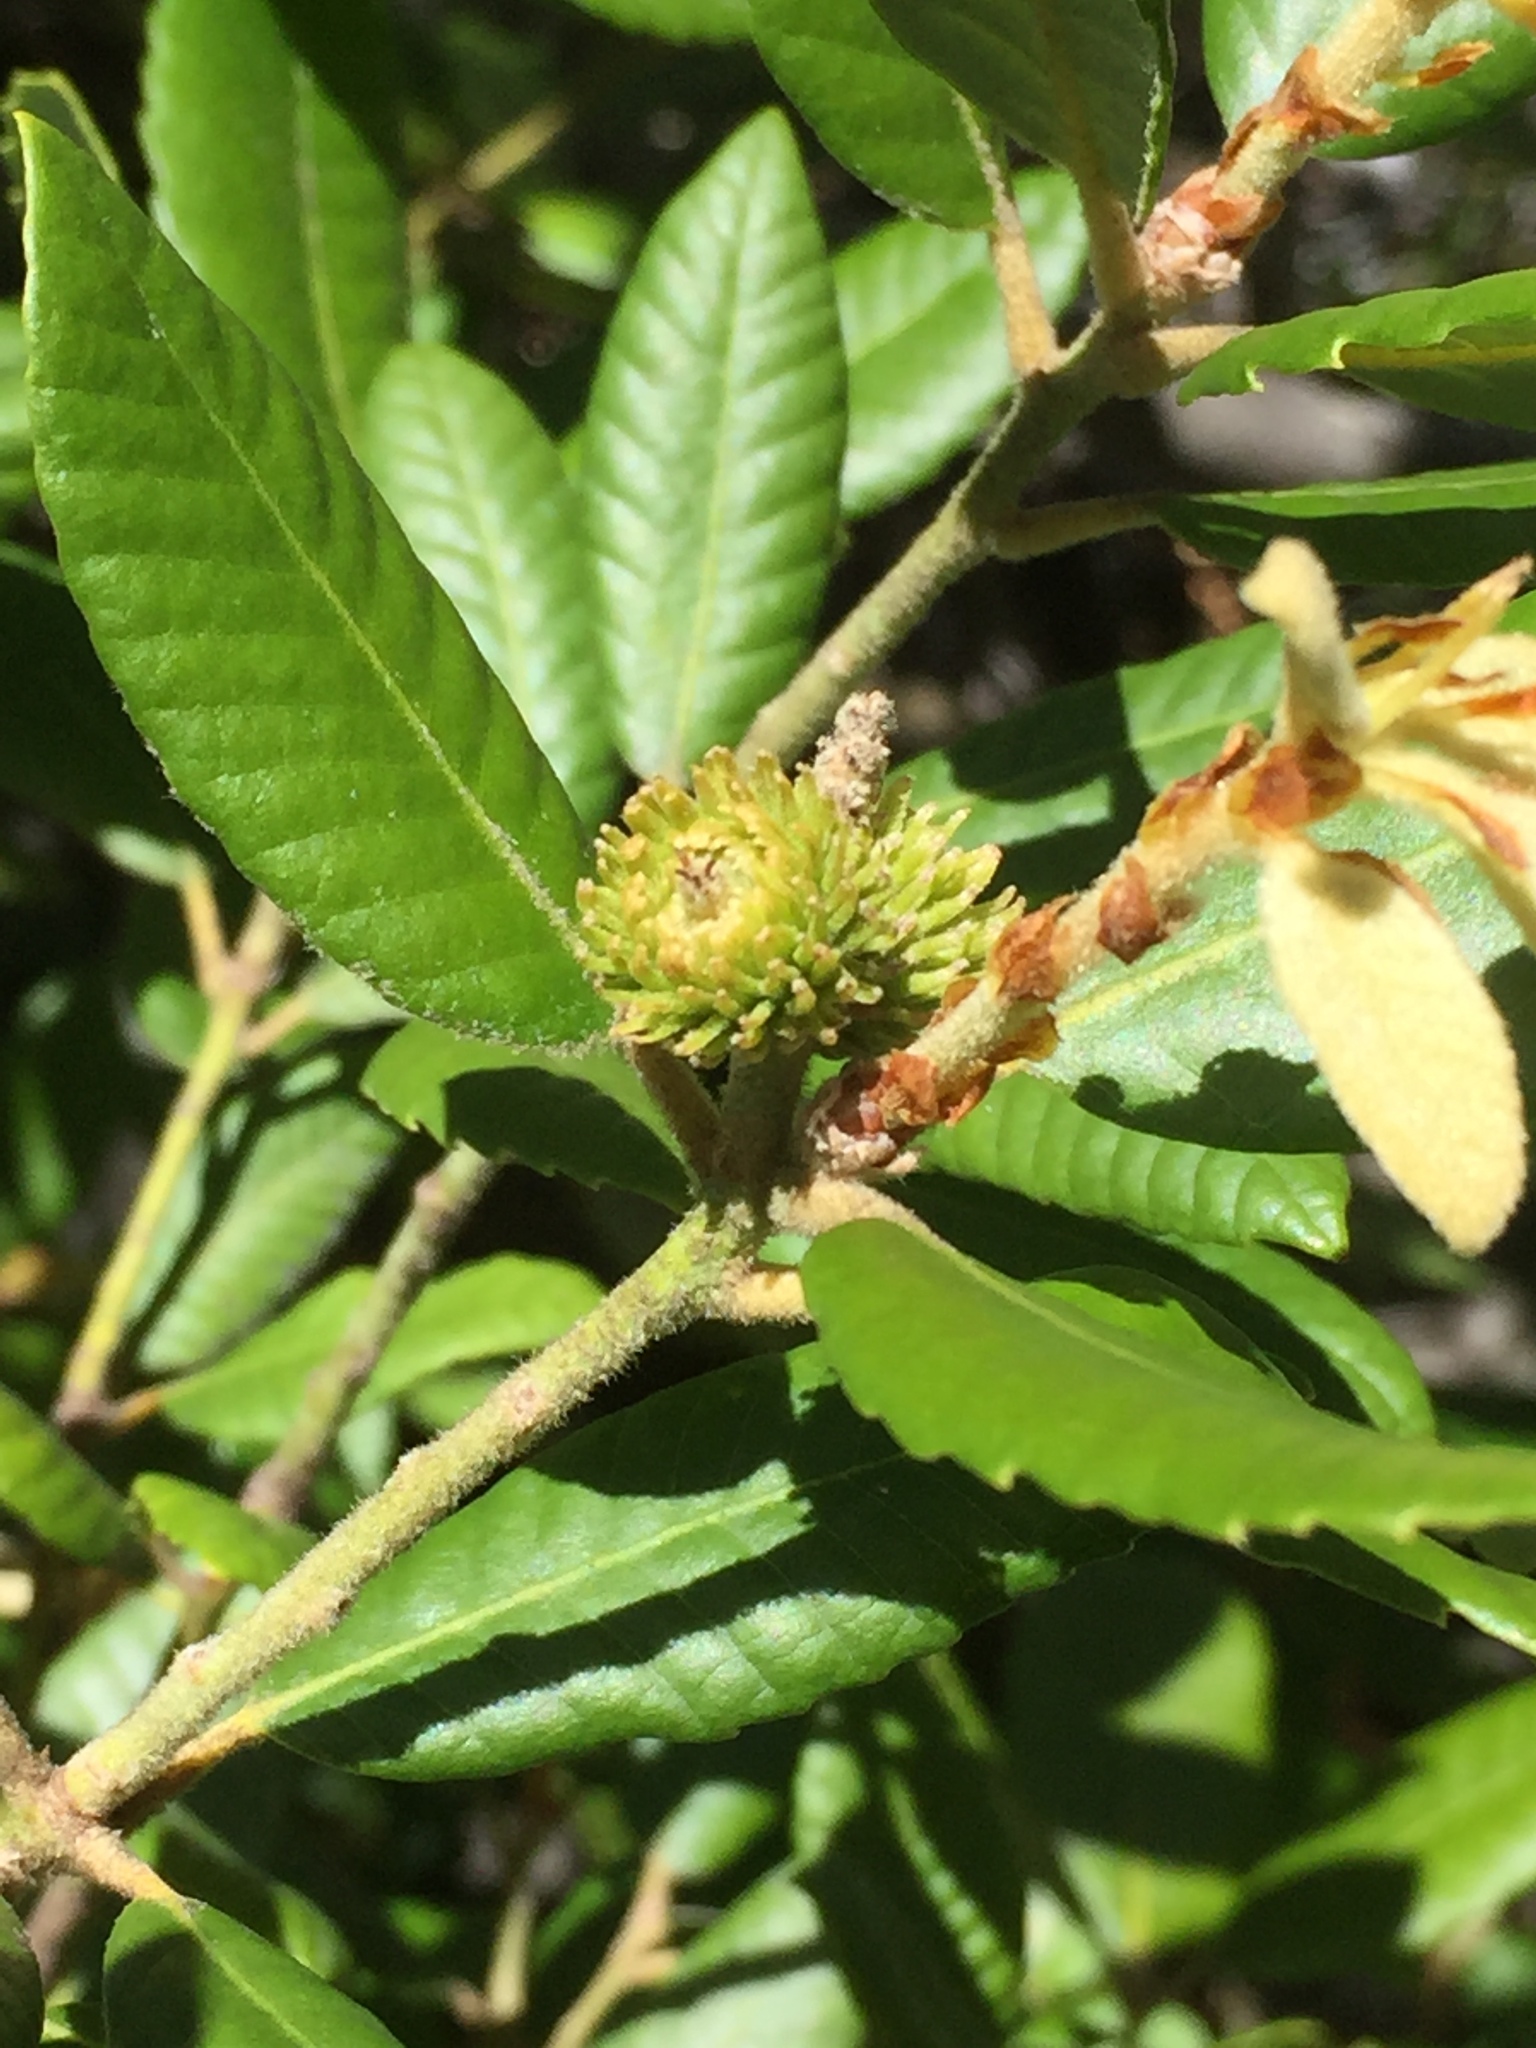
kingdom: Plantae
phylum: Tracheophyta
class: Magnoliopsida
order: Fagales
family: Fagaceae
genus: Notholithocarpus
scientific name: Notholithocarpus densiflorus
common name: Tan bark oak
